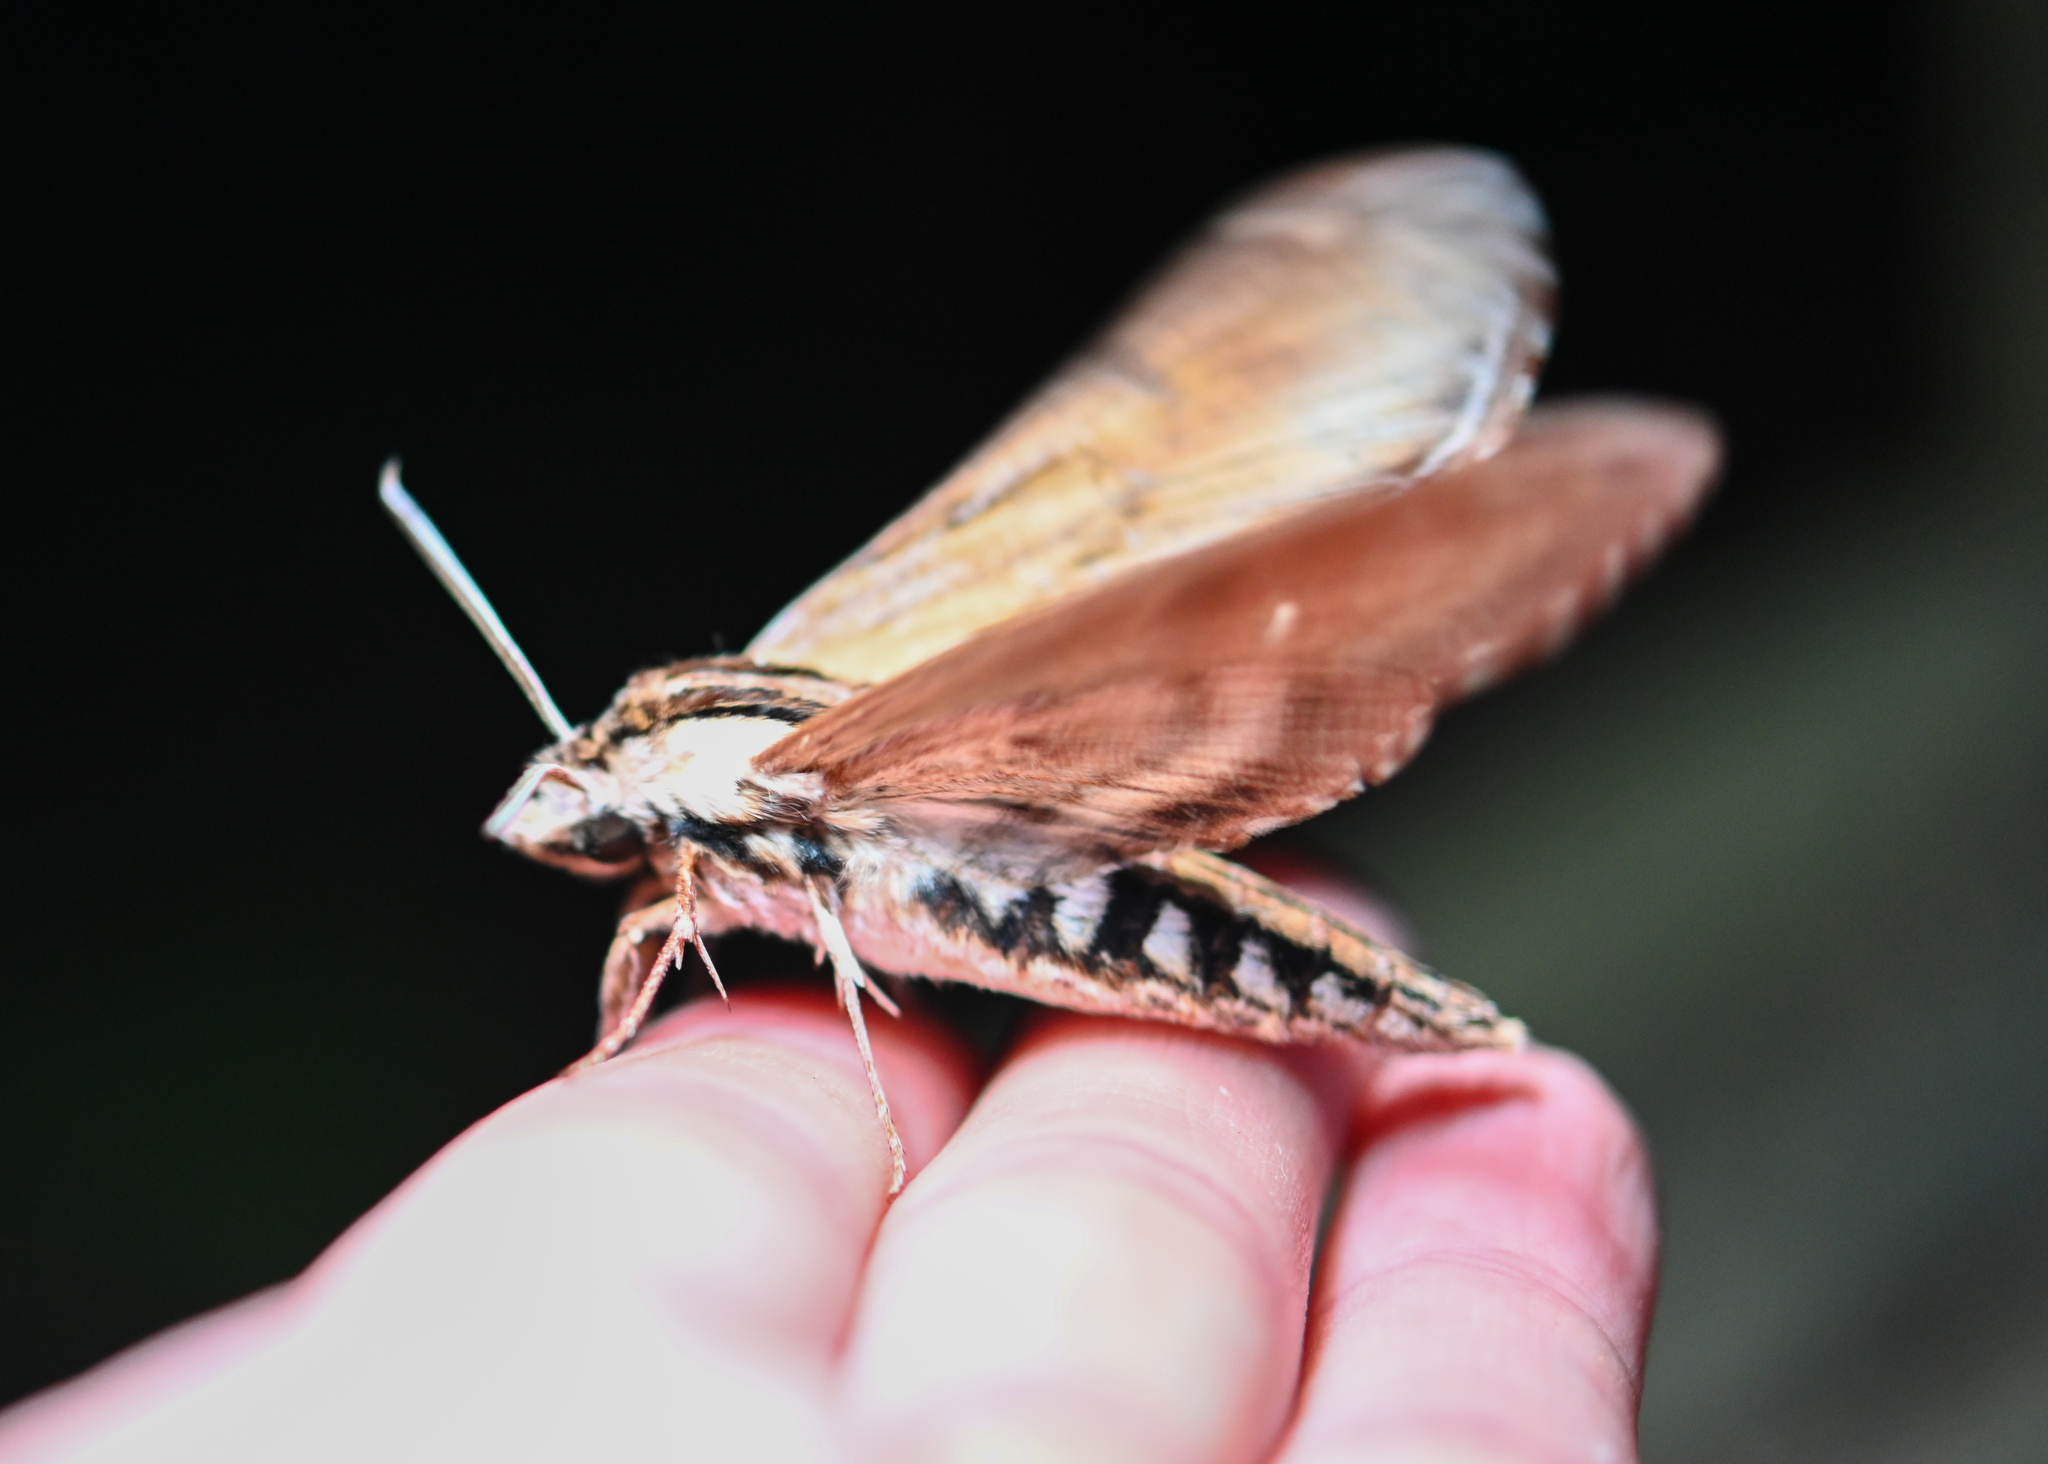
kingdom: Animalia
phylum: Arthropoda
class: Insecta
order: Lepidoptera
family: Sphingidae
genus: Sphinx
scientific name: Sphinx kalmiae
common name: Laurel sphinx
